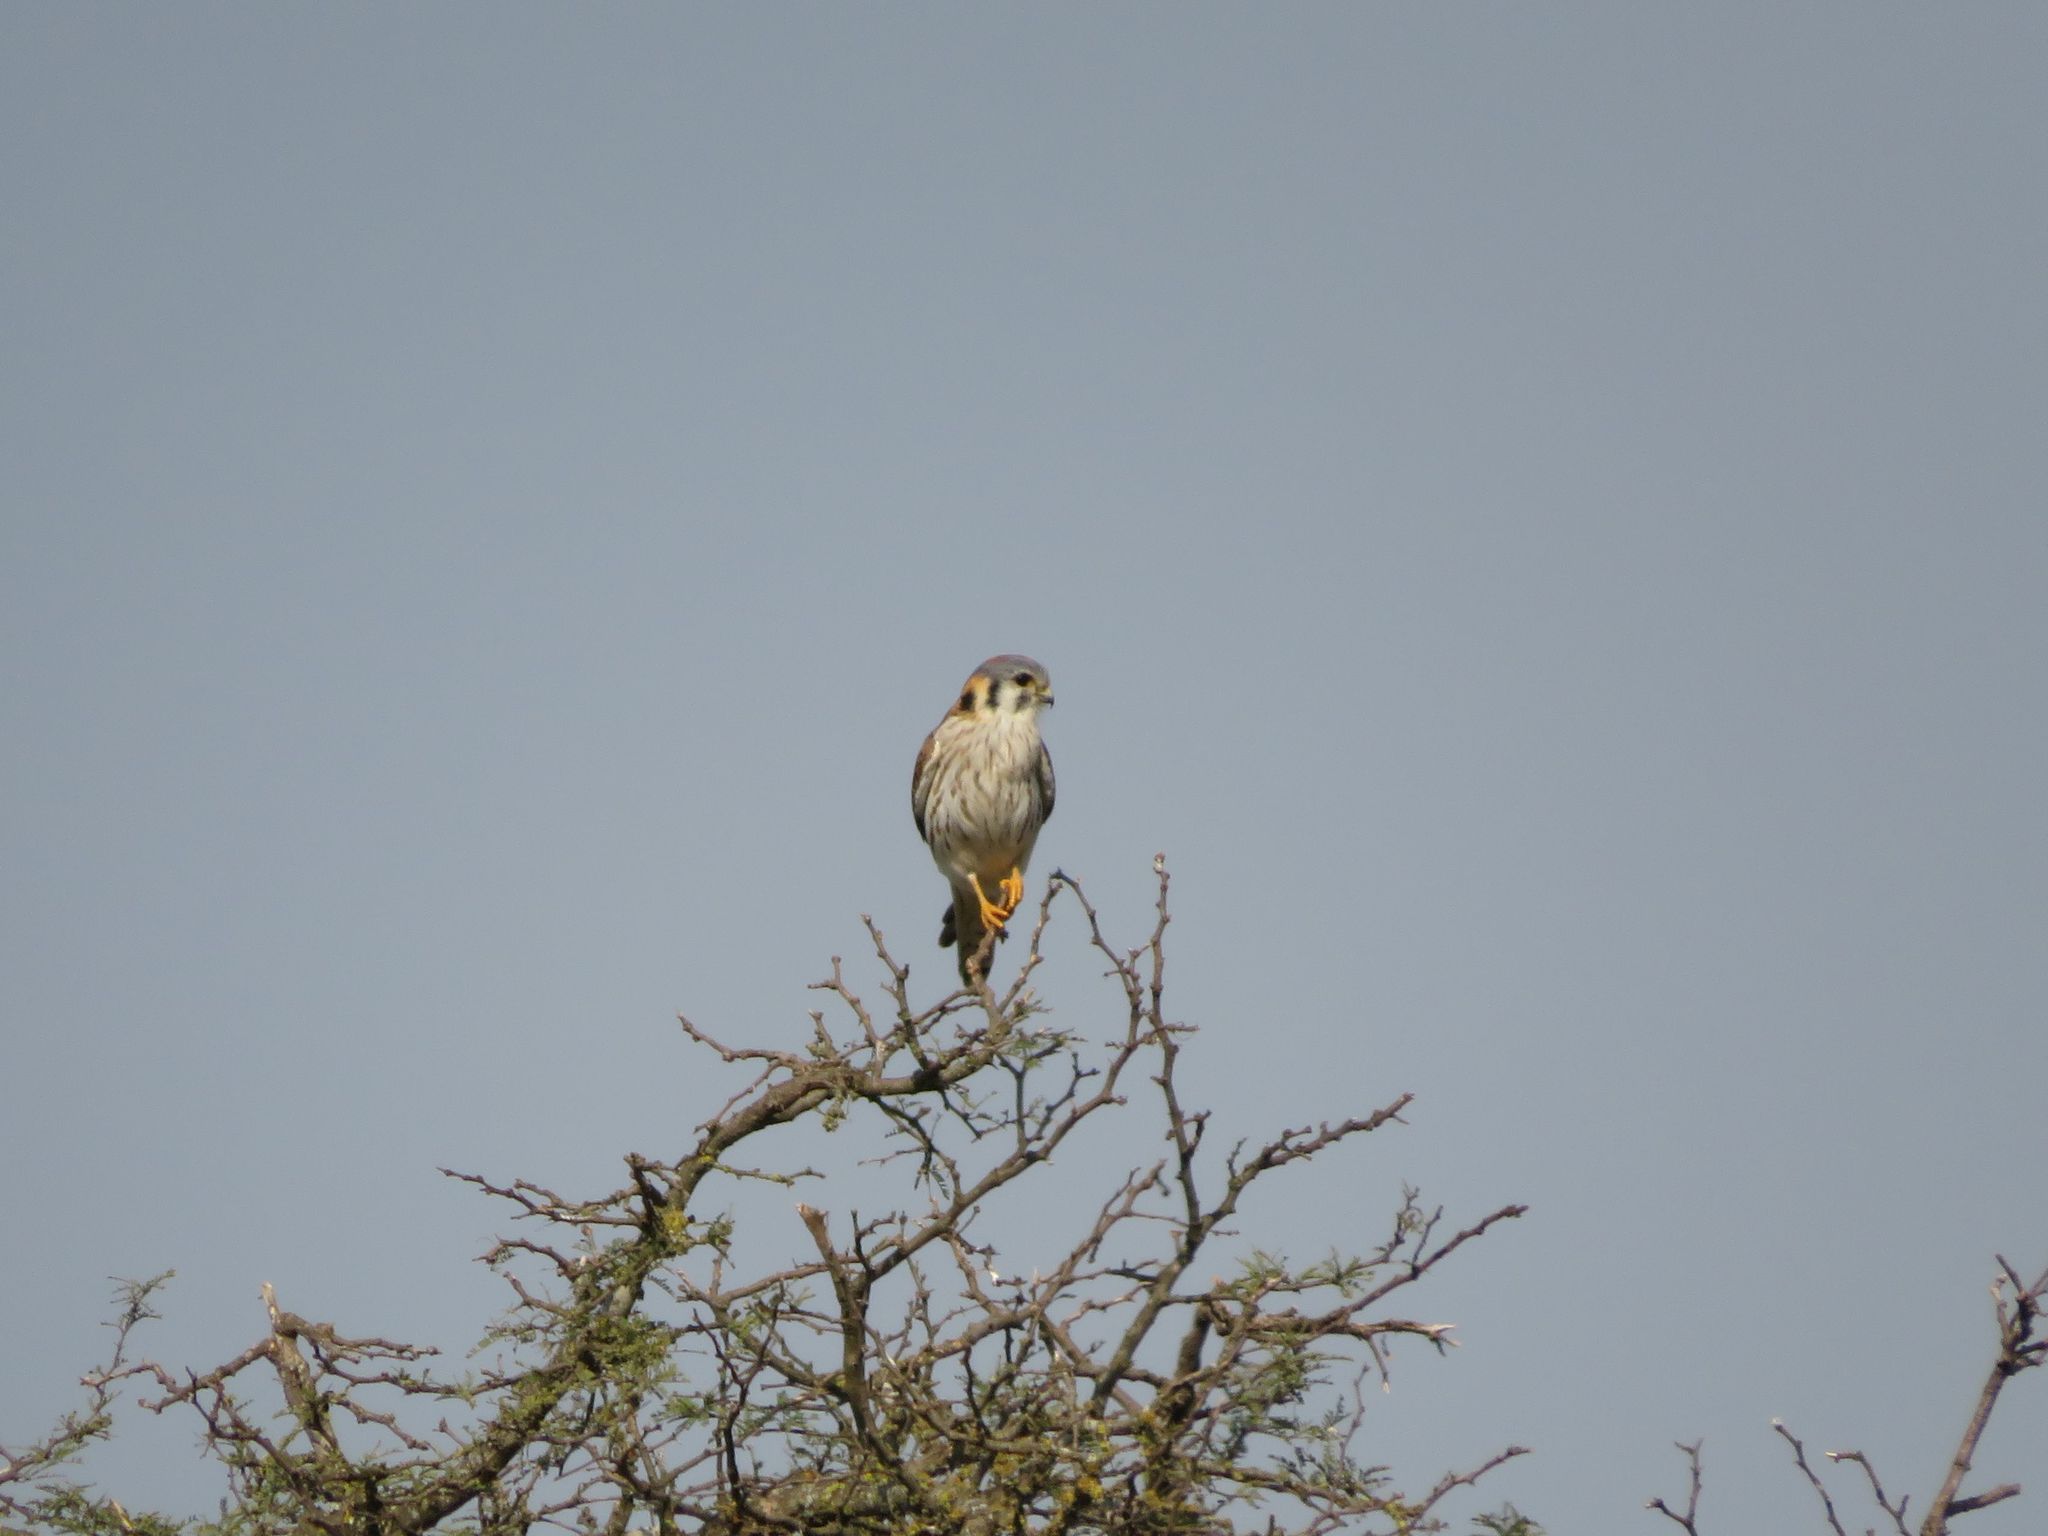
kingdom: Animalia
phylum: Chordata
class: Aves
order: Falconiformes
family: Falconidae
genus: Falco
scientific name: Falco sparverius
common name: American kestrel
